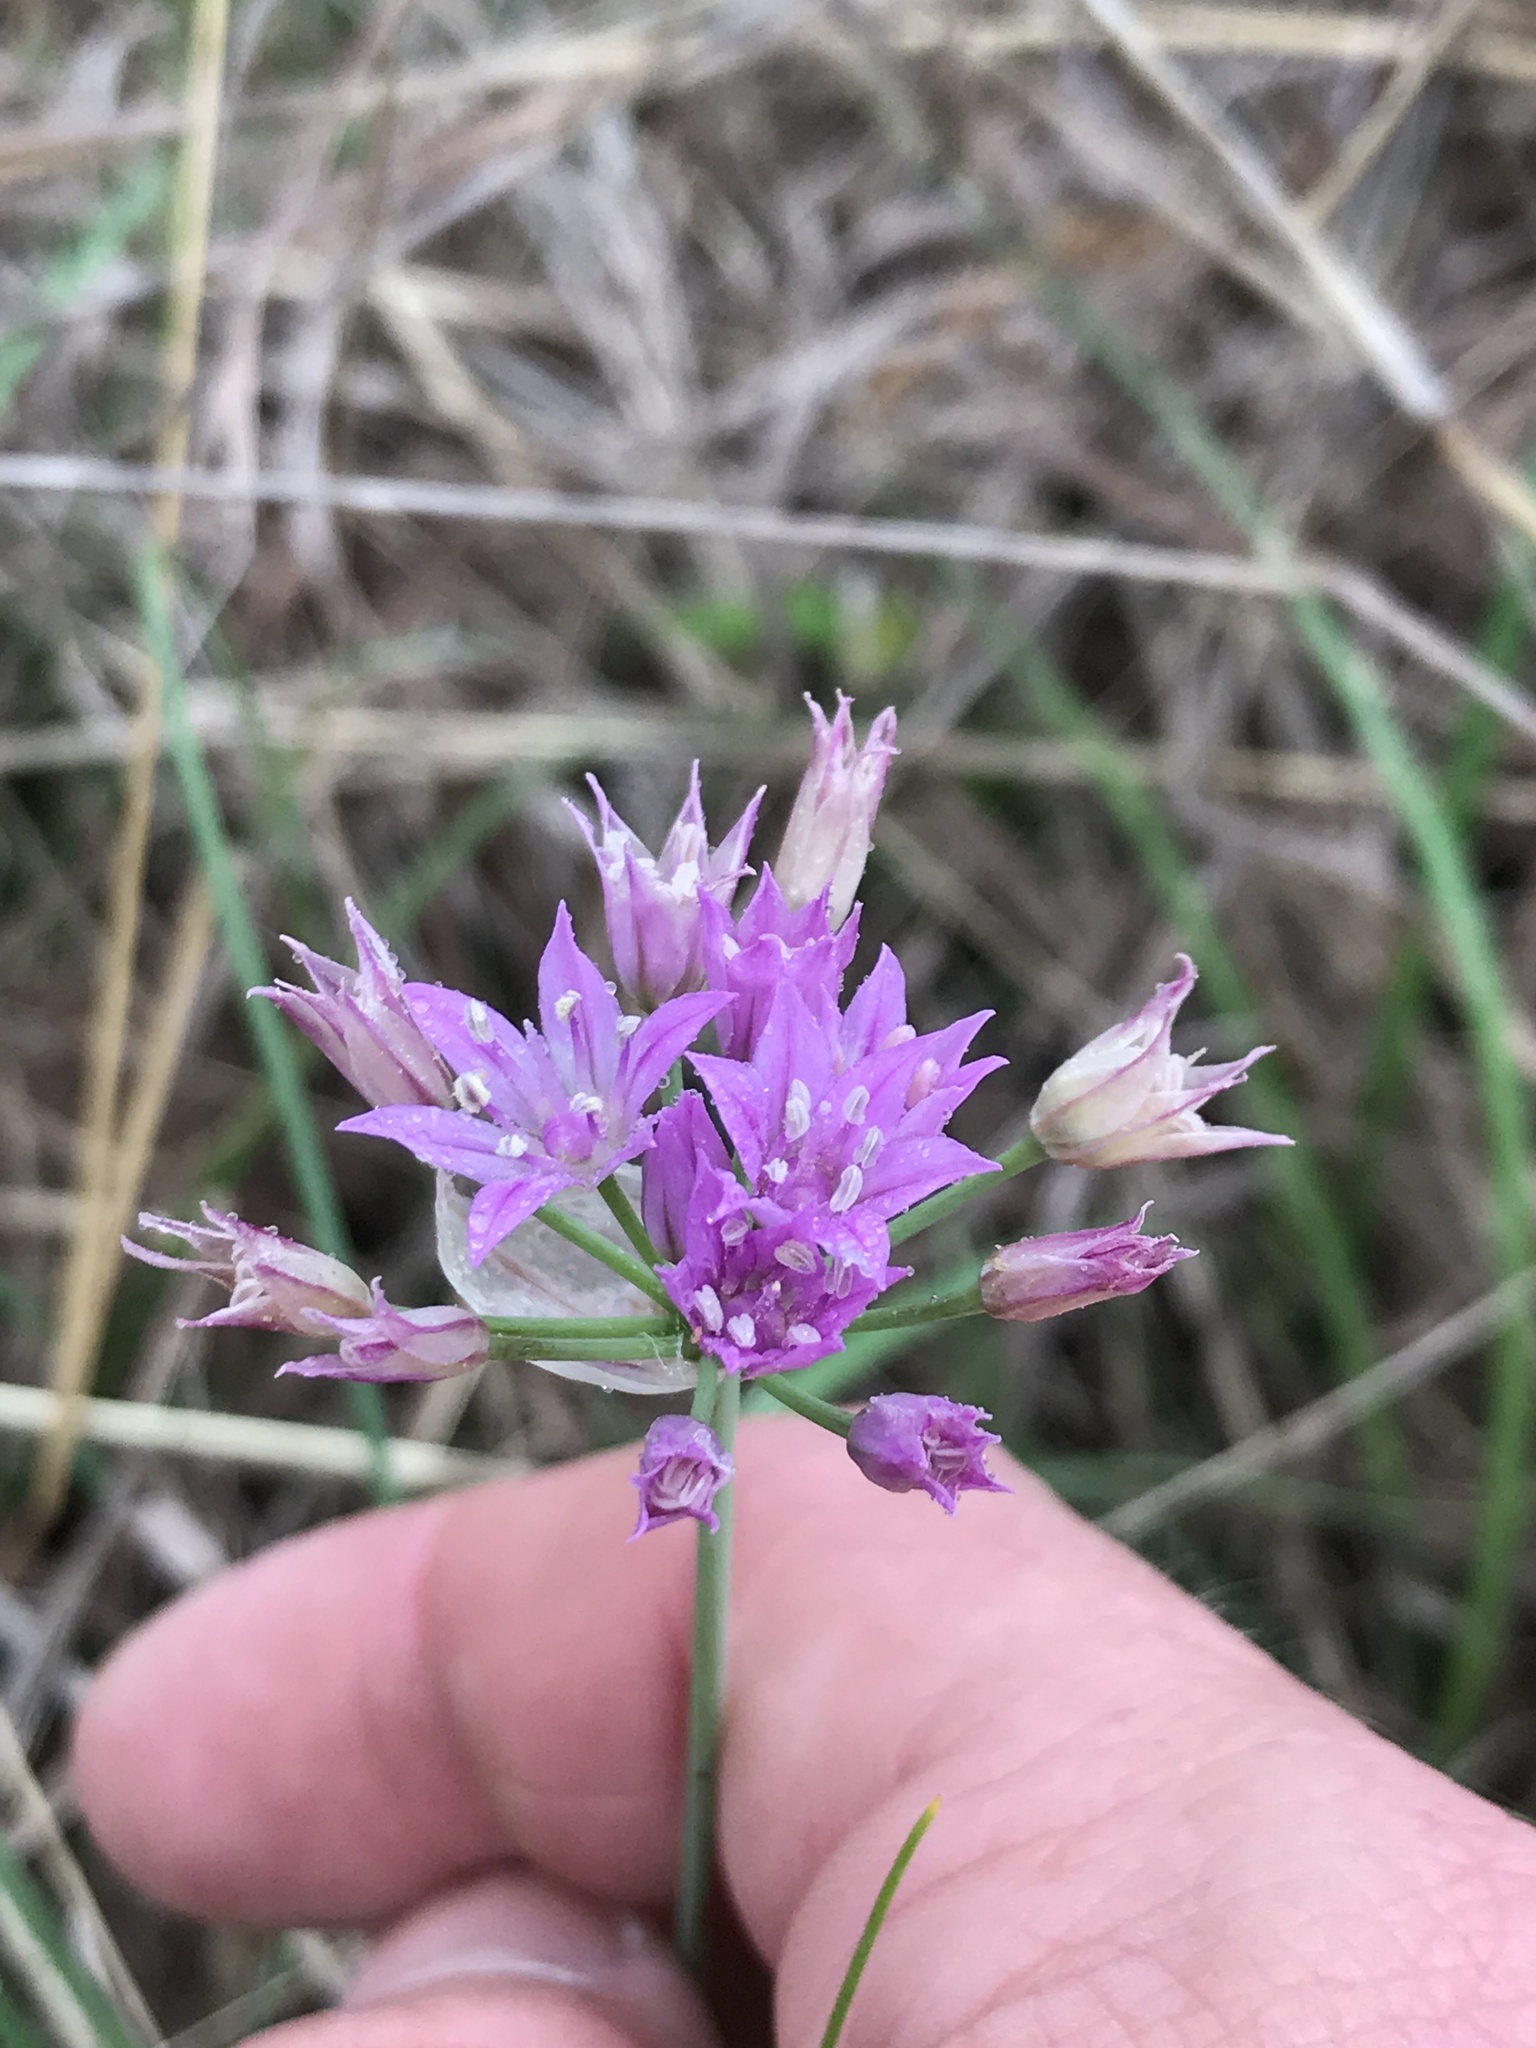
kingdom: Plantae
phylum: Tracheophyta
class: Liliopsida
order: Asparagales
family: Amaryllidaceae
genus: Allium
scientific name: Allium drummondii
